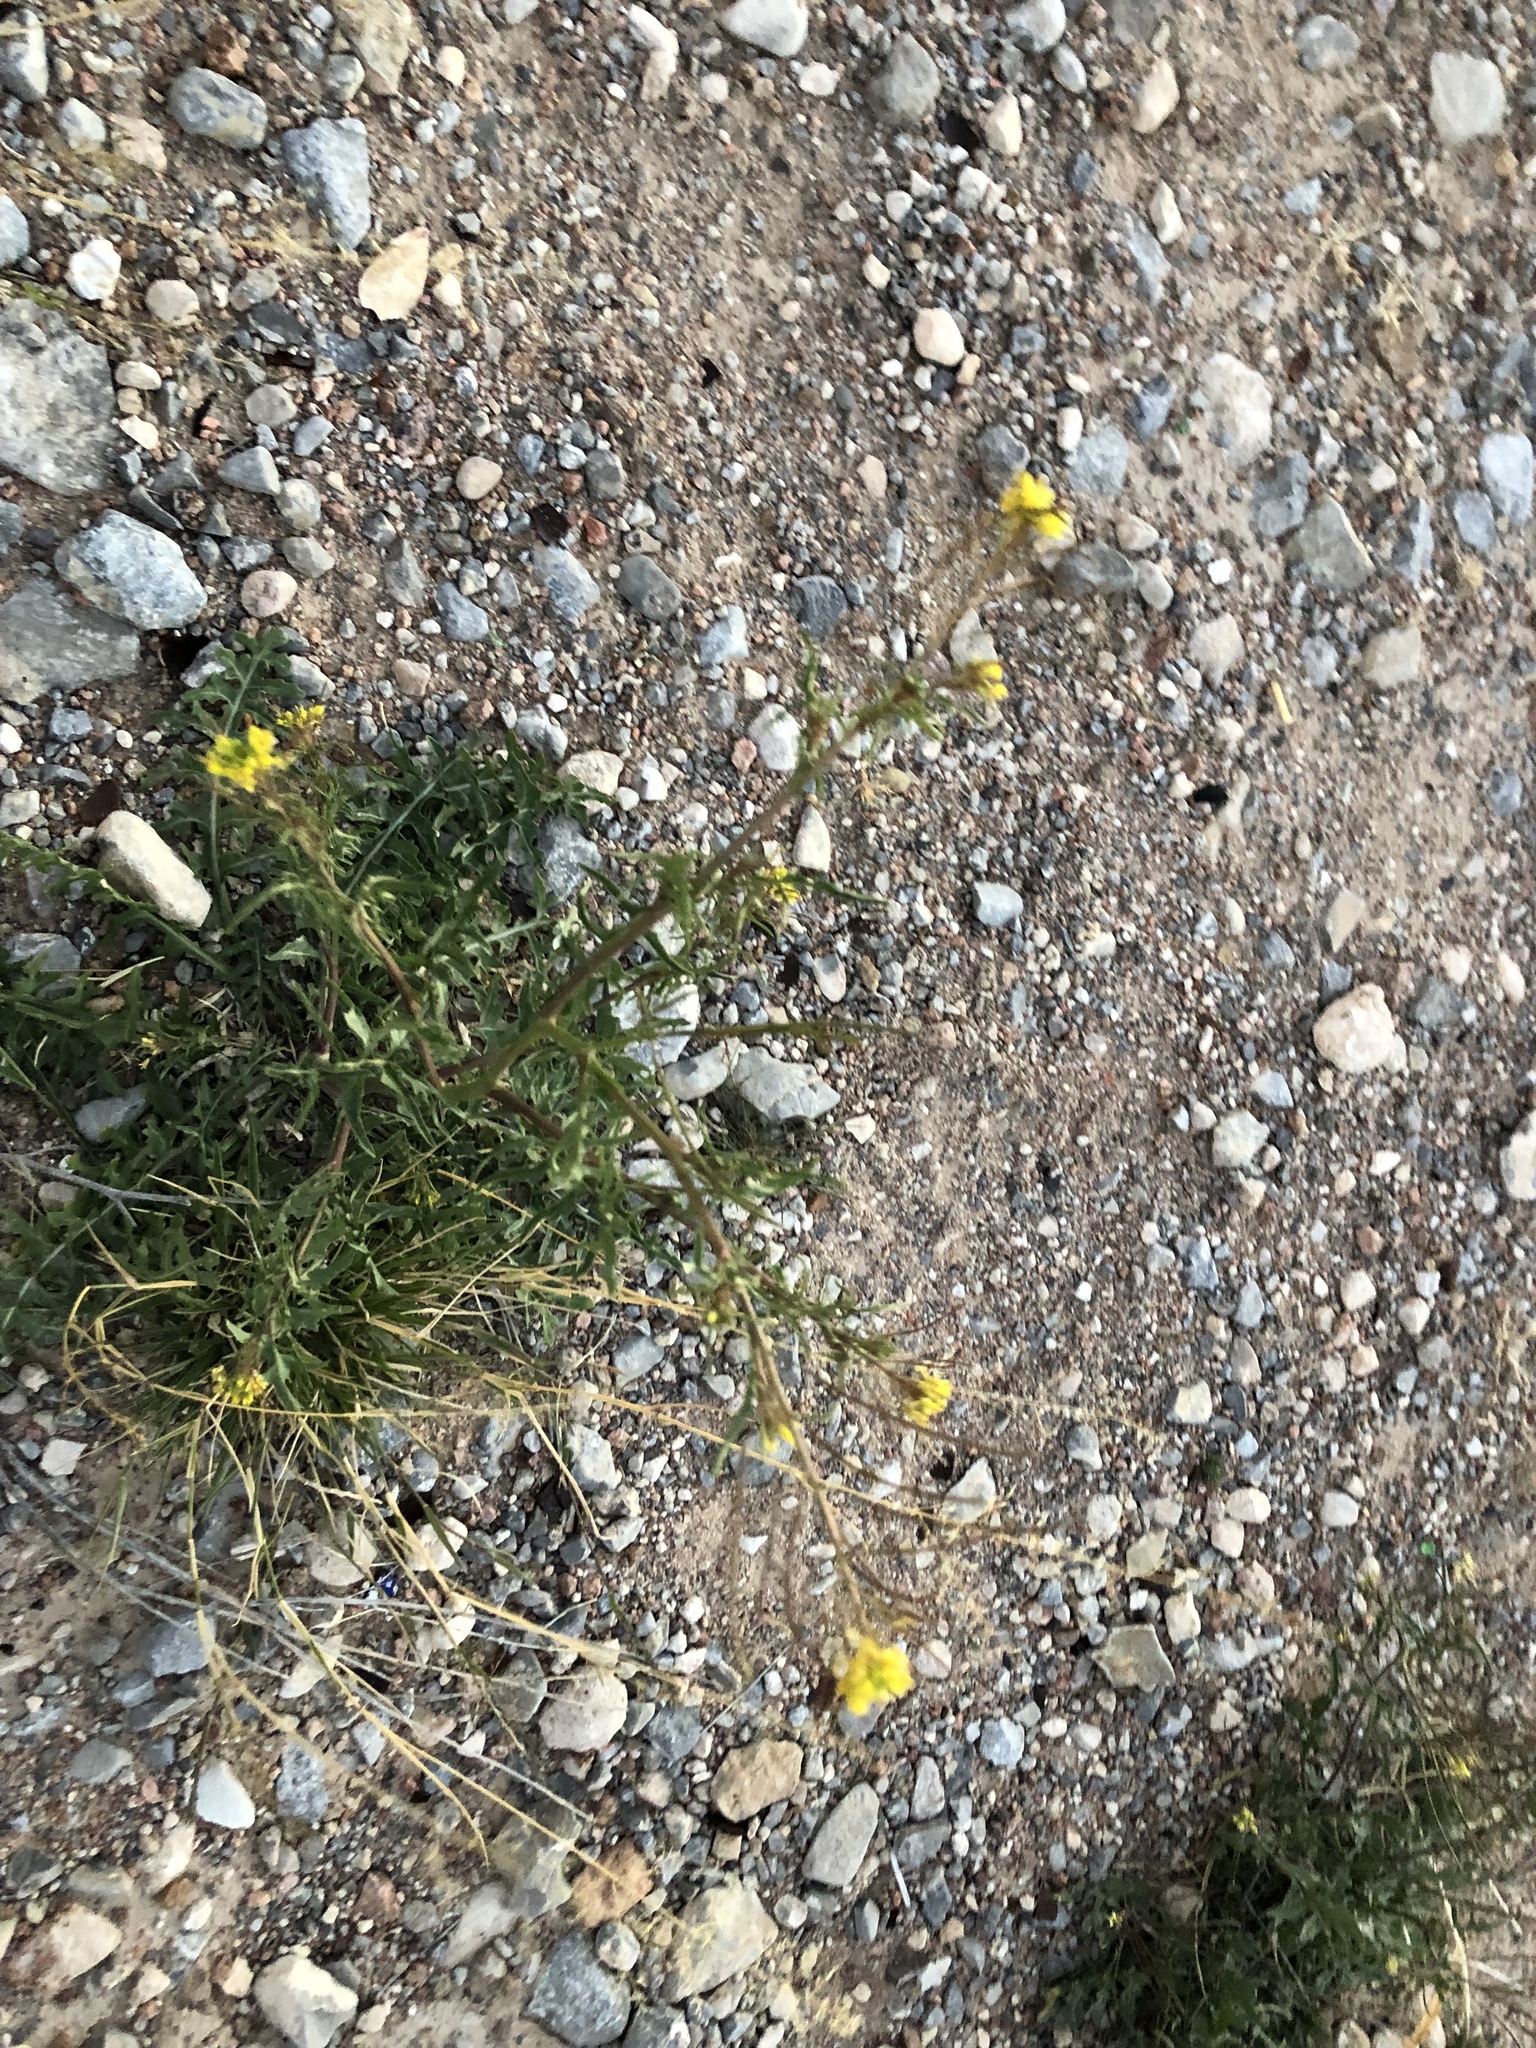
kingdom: Plantae
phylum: Tracheophyta
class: Magnoliopsida
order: Brassicales
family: Brassicaceae
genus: Sisymbrium
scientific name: Sisymbrium irio
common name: London rocket
